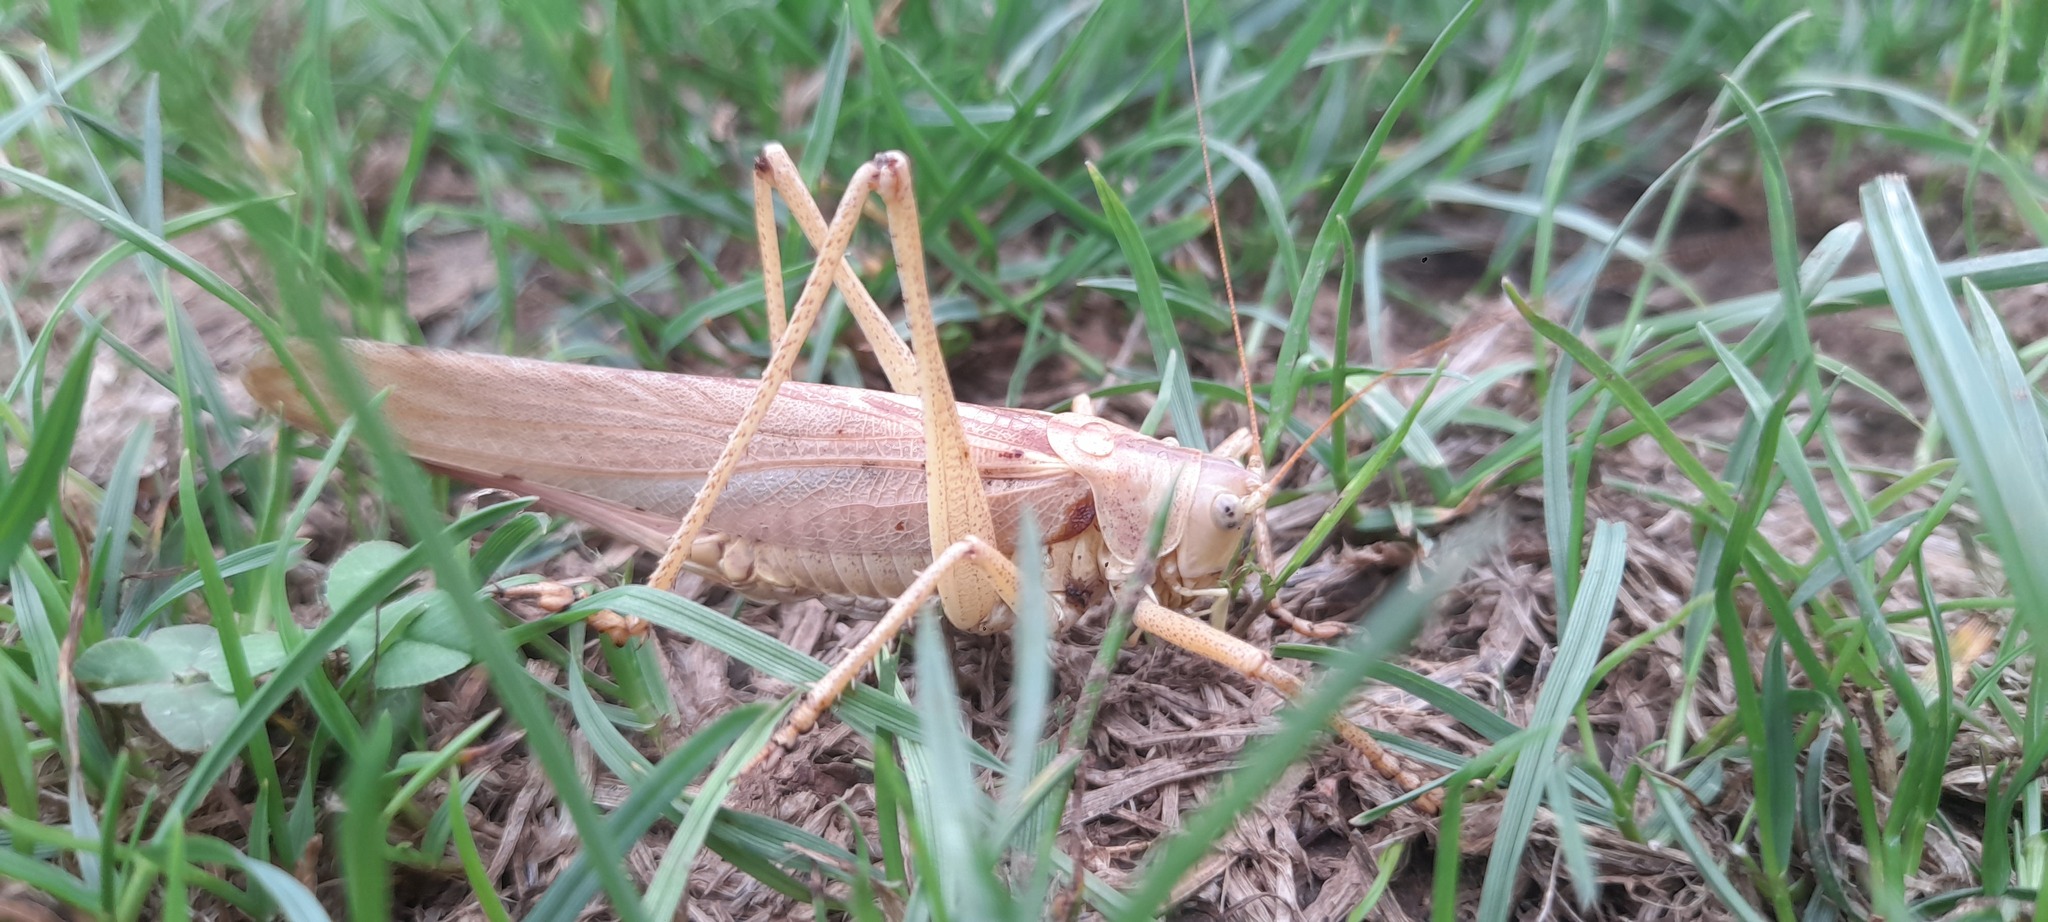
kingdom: Animalia
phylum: Arthropoda
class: Insecta
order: Orthoptera
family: Tettigoniidae
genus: Tettigonia
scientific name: Tettigonia viridissima
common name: Great green bush-cricket
